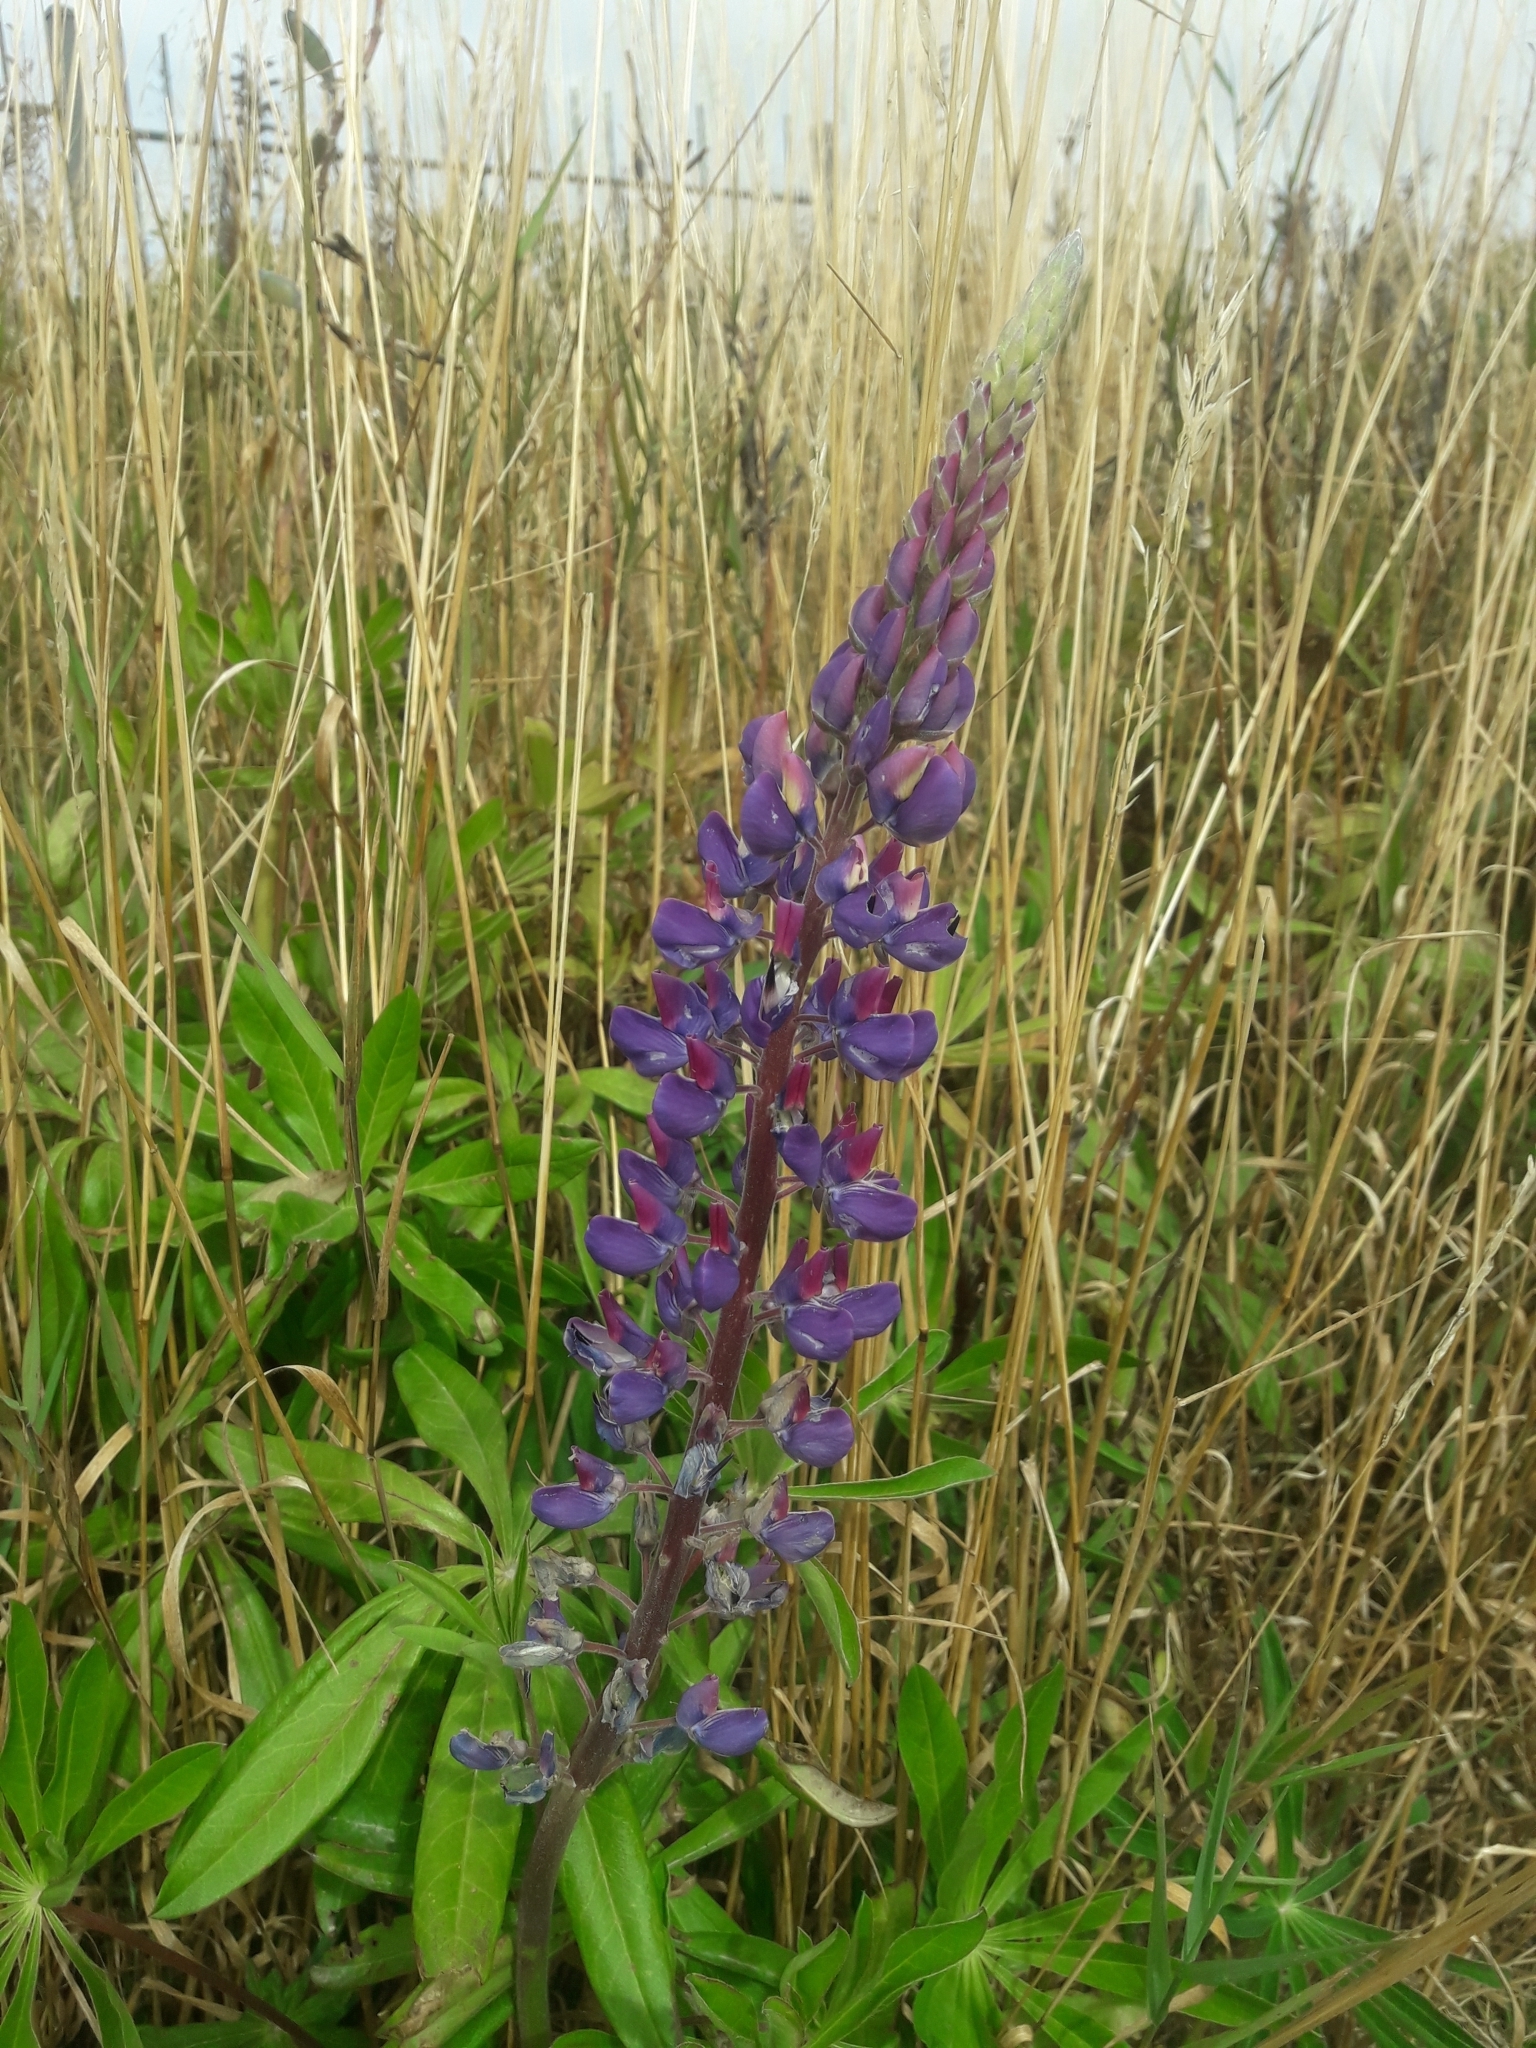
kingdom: Plantae
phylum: Tracheophyta
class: Magnoliopsida
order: Fabales
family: Fabaceae
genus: Lupinus
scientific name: Lupinus polyphyllus
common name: Garden lupin
